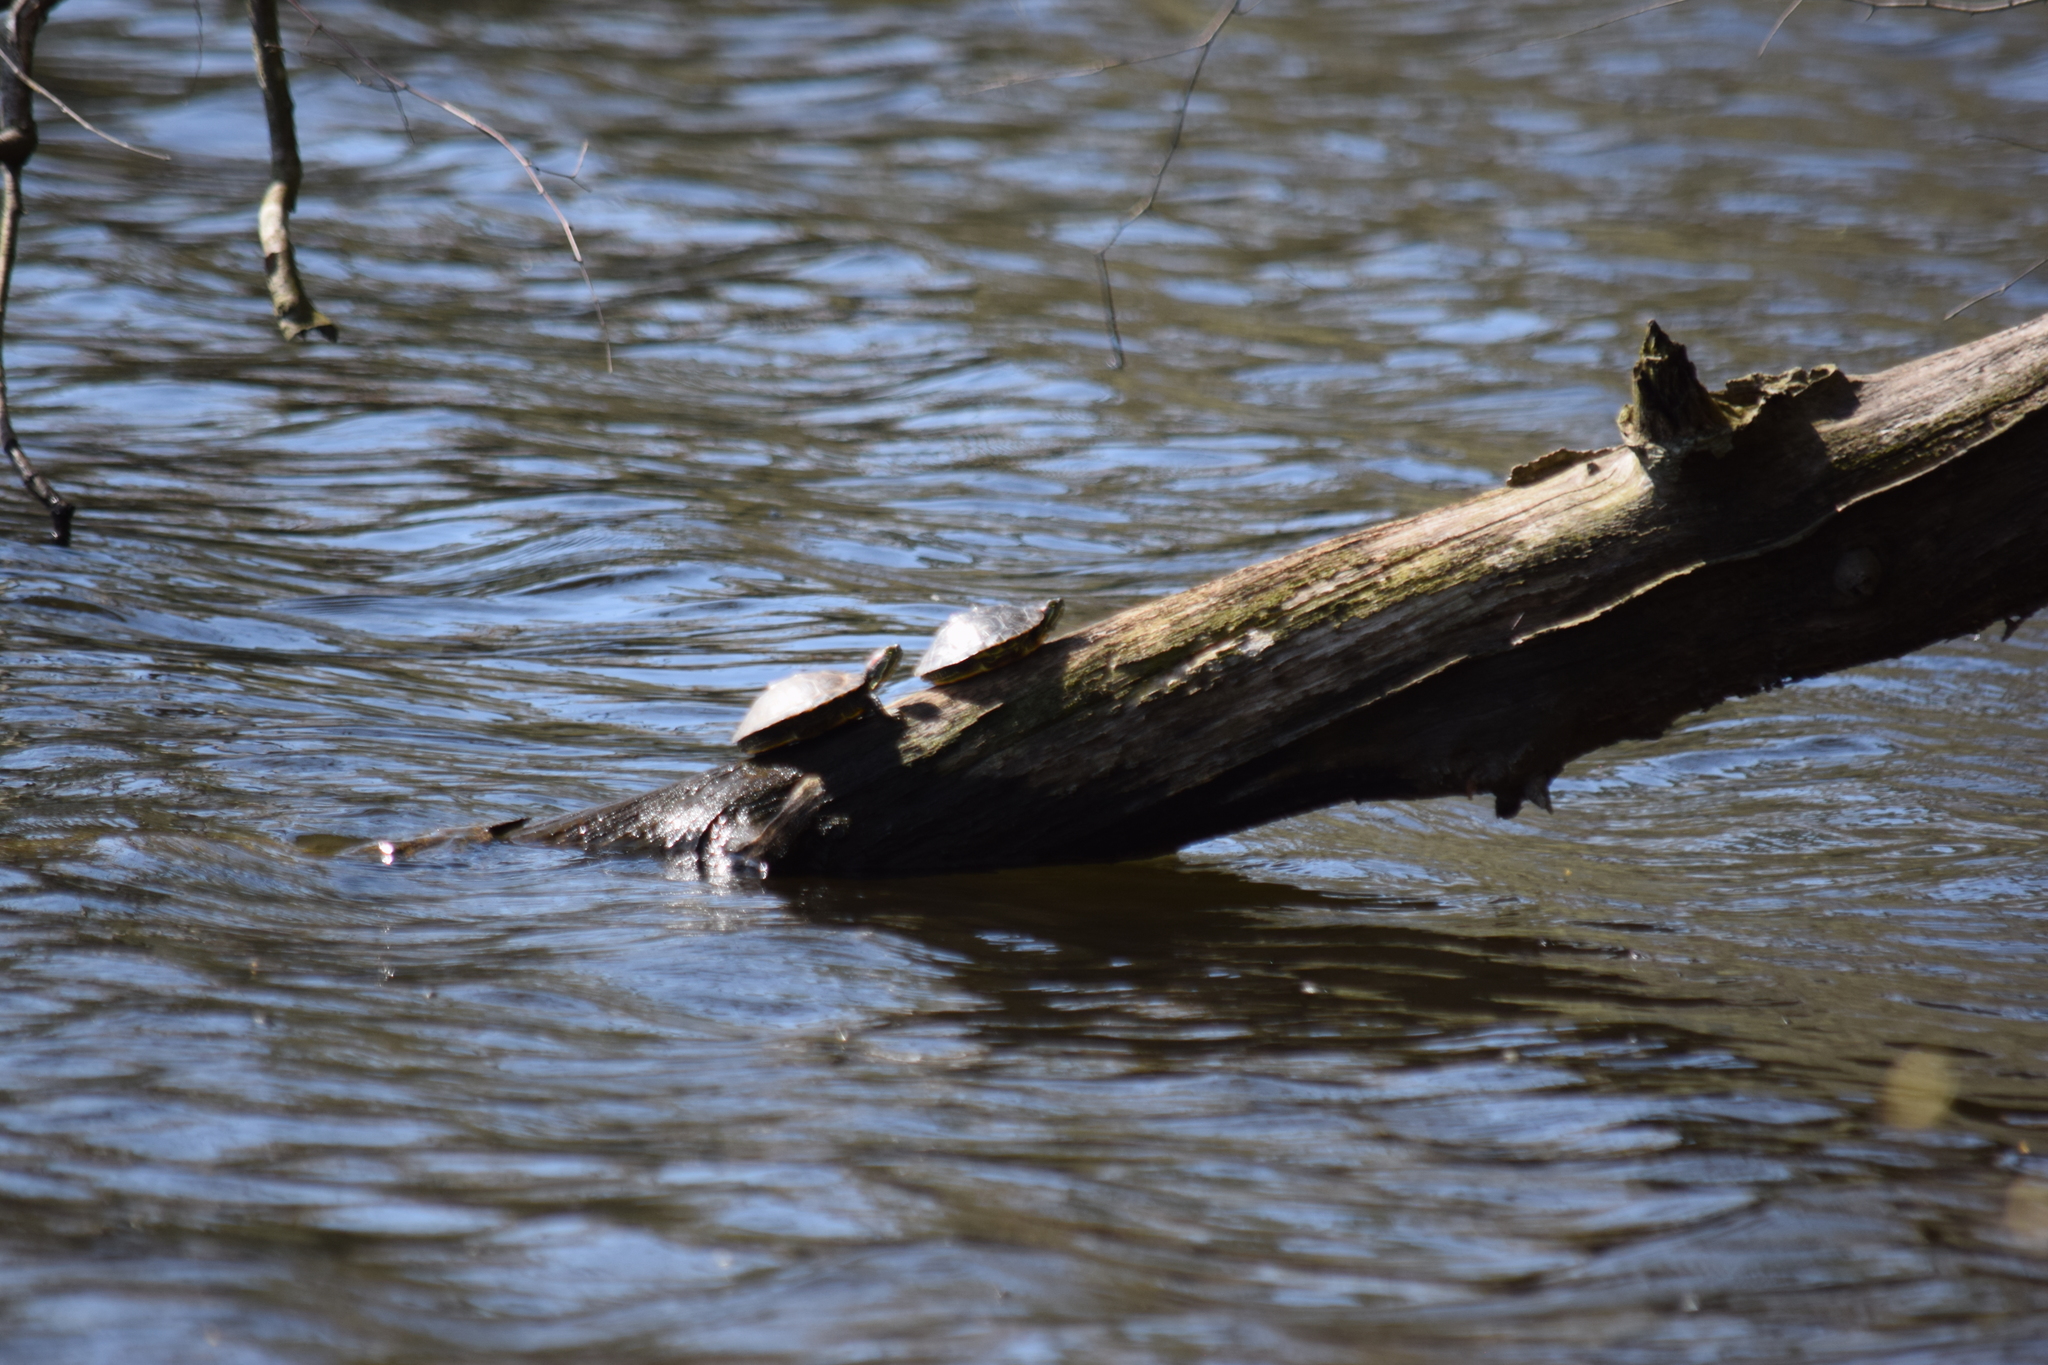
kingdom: Animalia
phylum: Chordata
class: Testudines
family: Emydidae
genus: Trachemys
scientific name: Trachemys scripta
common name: Slider
